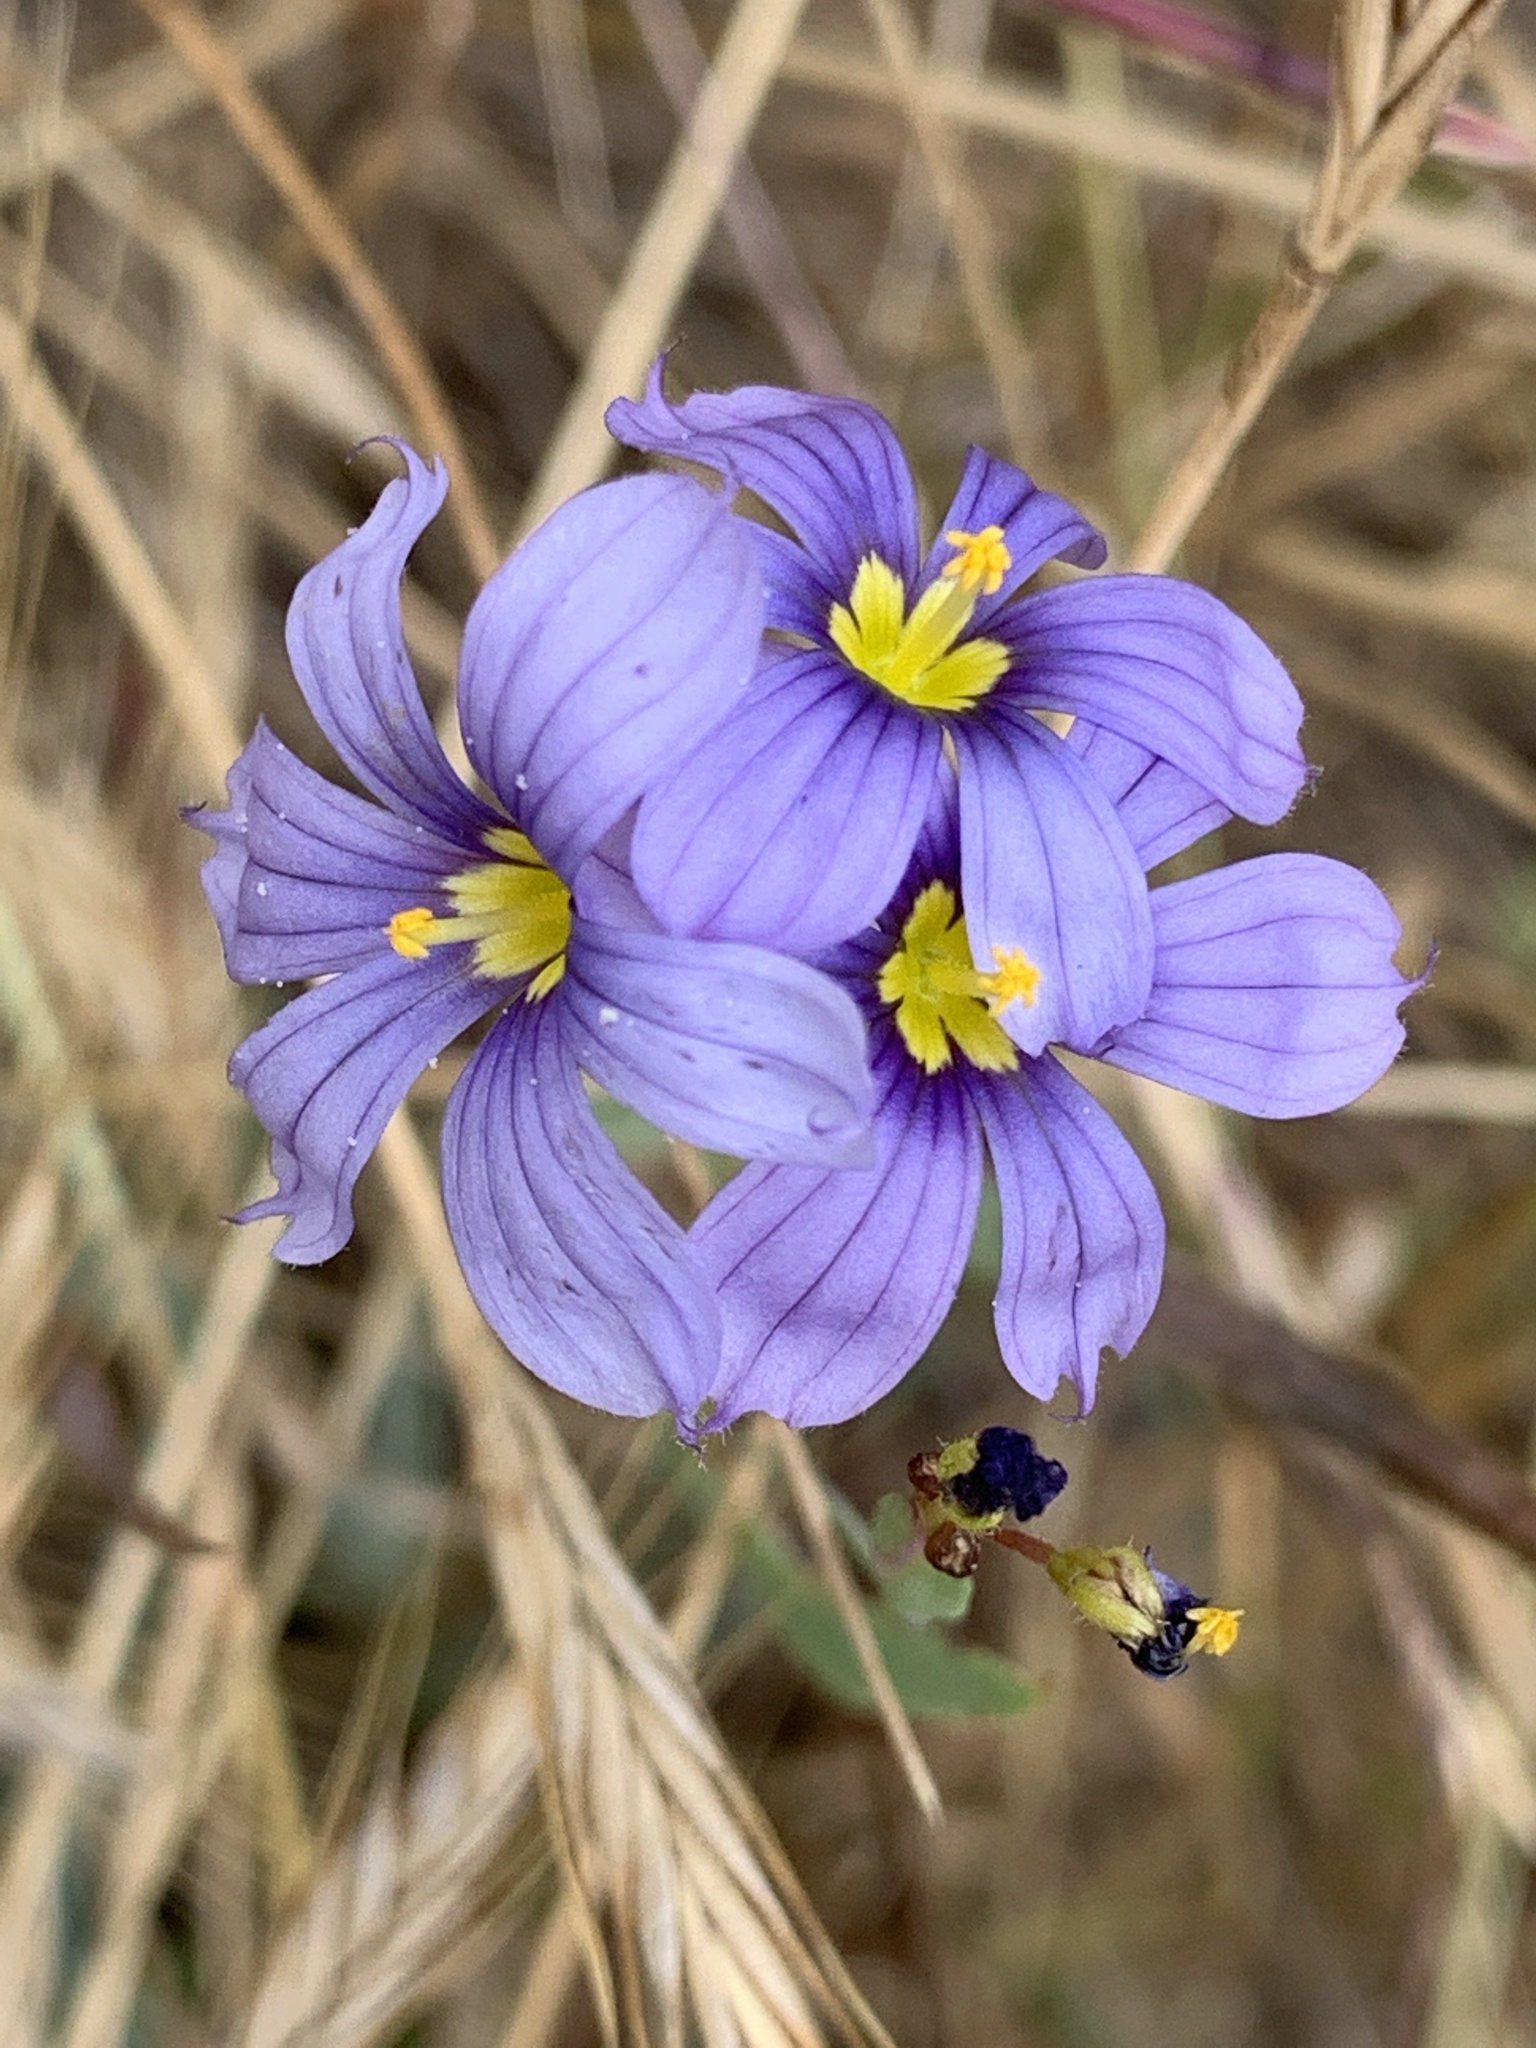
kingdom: Plantae
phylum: Tracheophyta
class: Liliopsida
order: Asparagales
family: Iridaceae
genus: Sisyrinchium
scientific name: Sisyrinchium bellum
